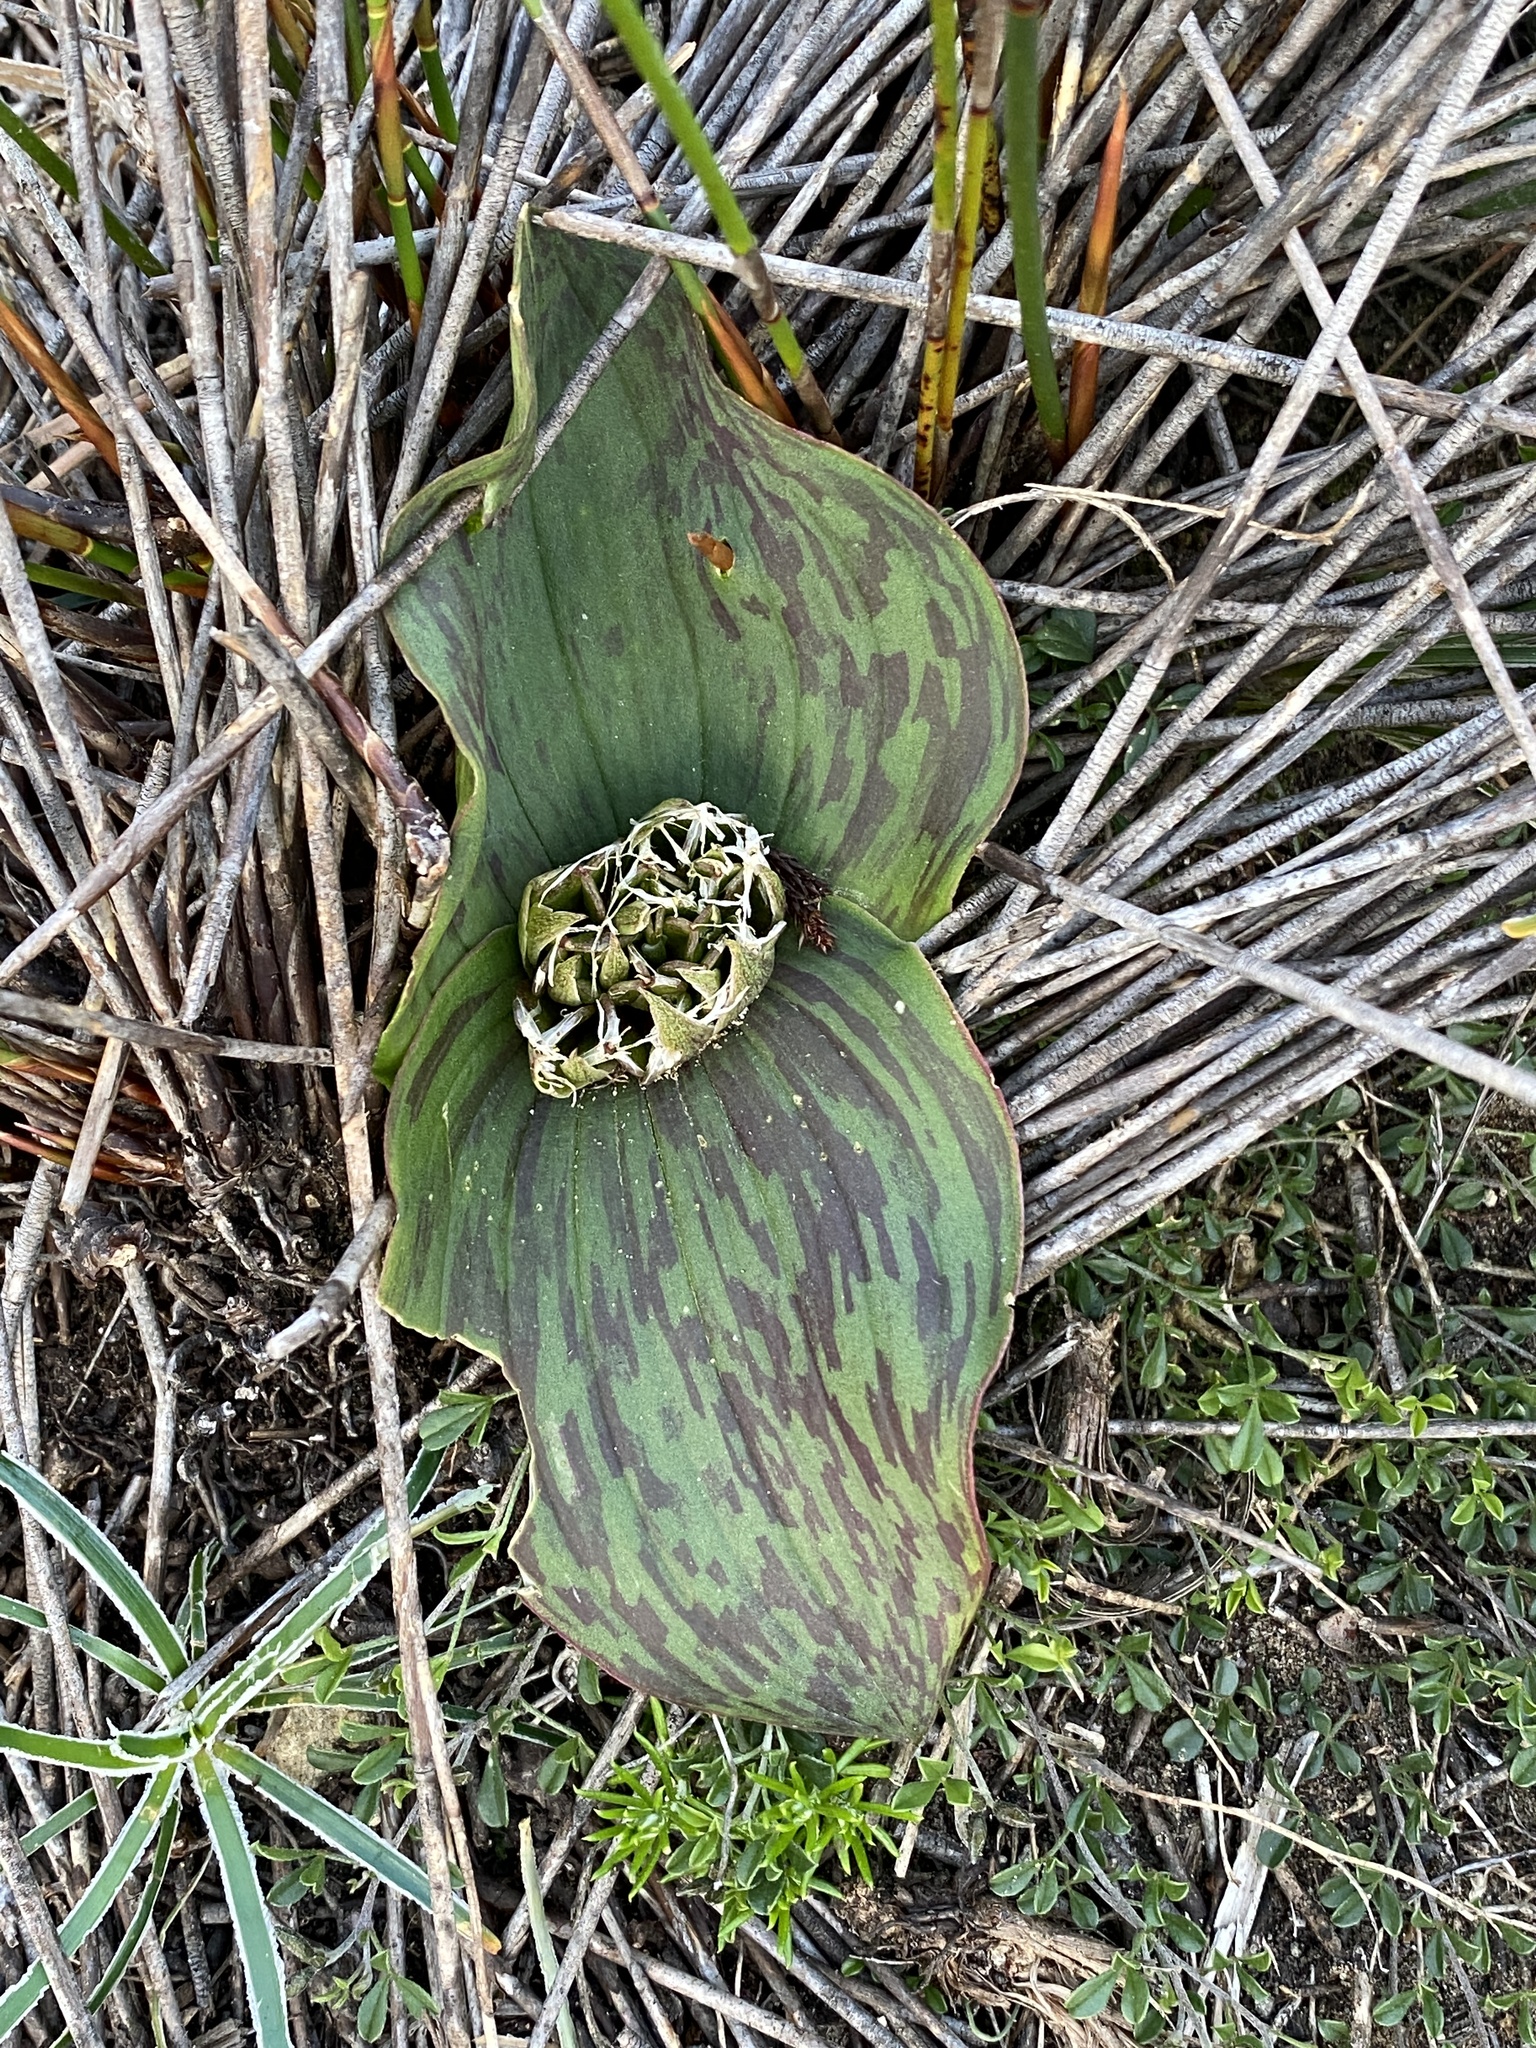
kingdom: Plantae
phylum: Tracheophyta
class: Liliopsida
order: Asparagales
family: Asparagaceae
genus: Massonia
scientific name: Massonia longipes
